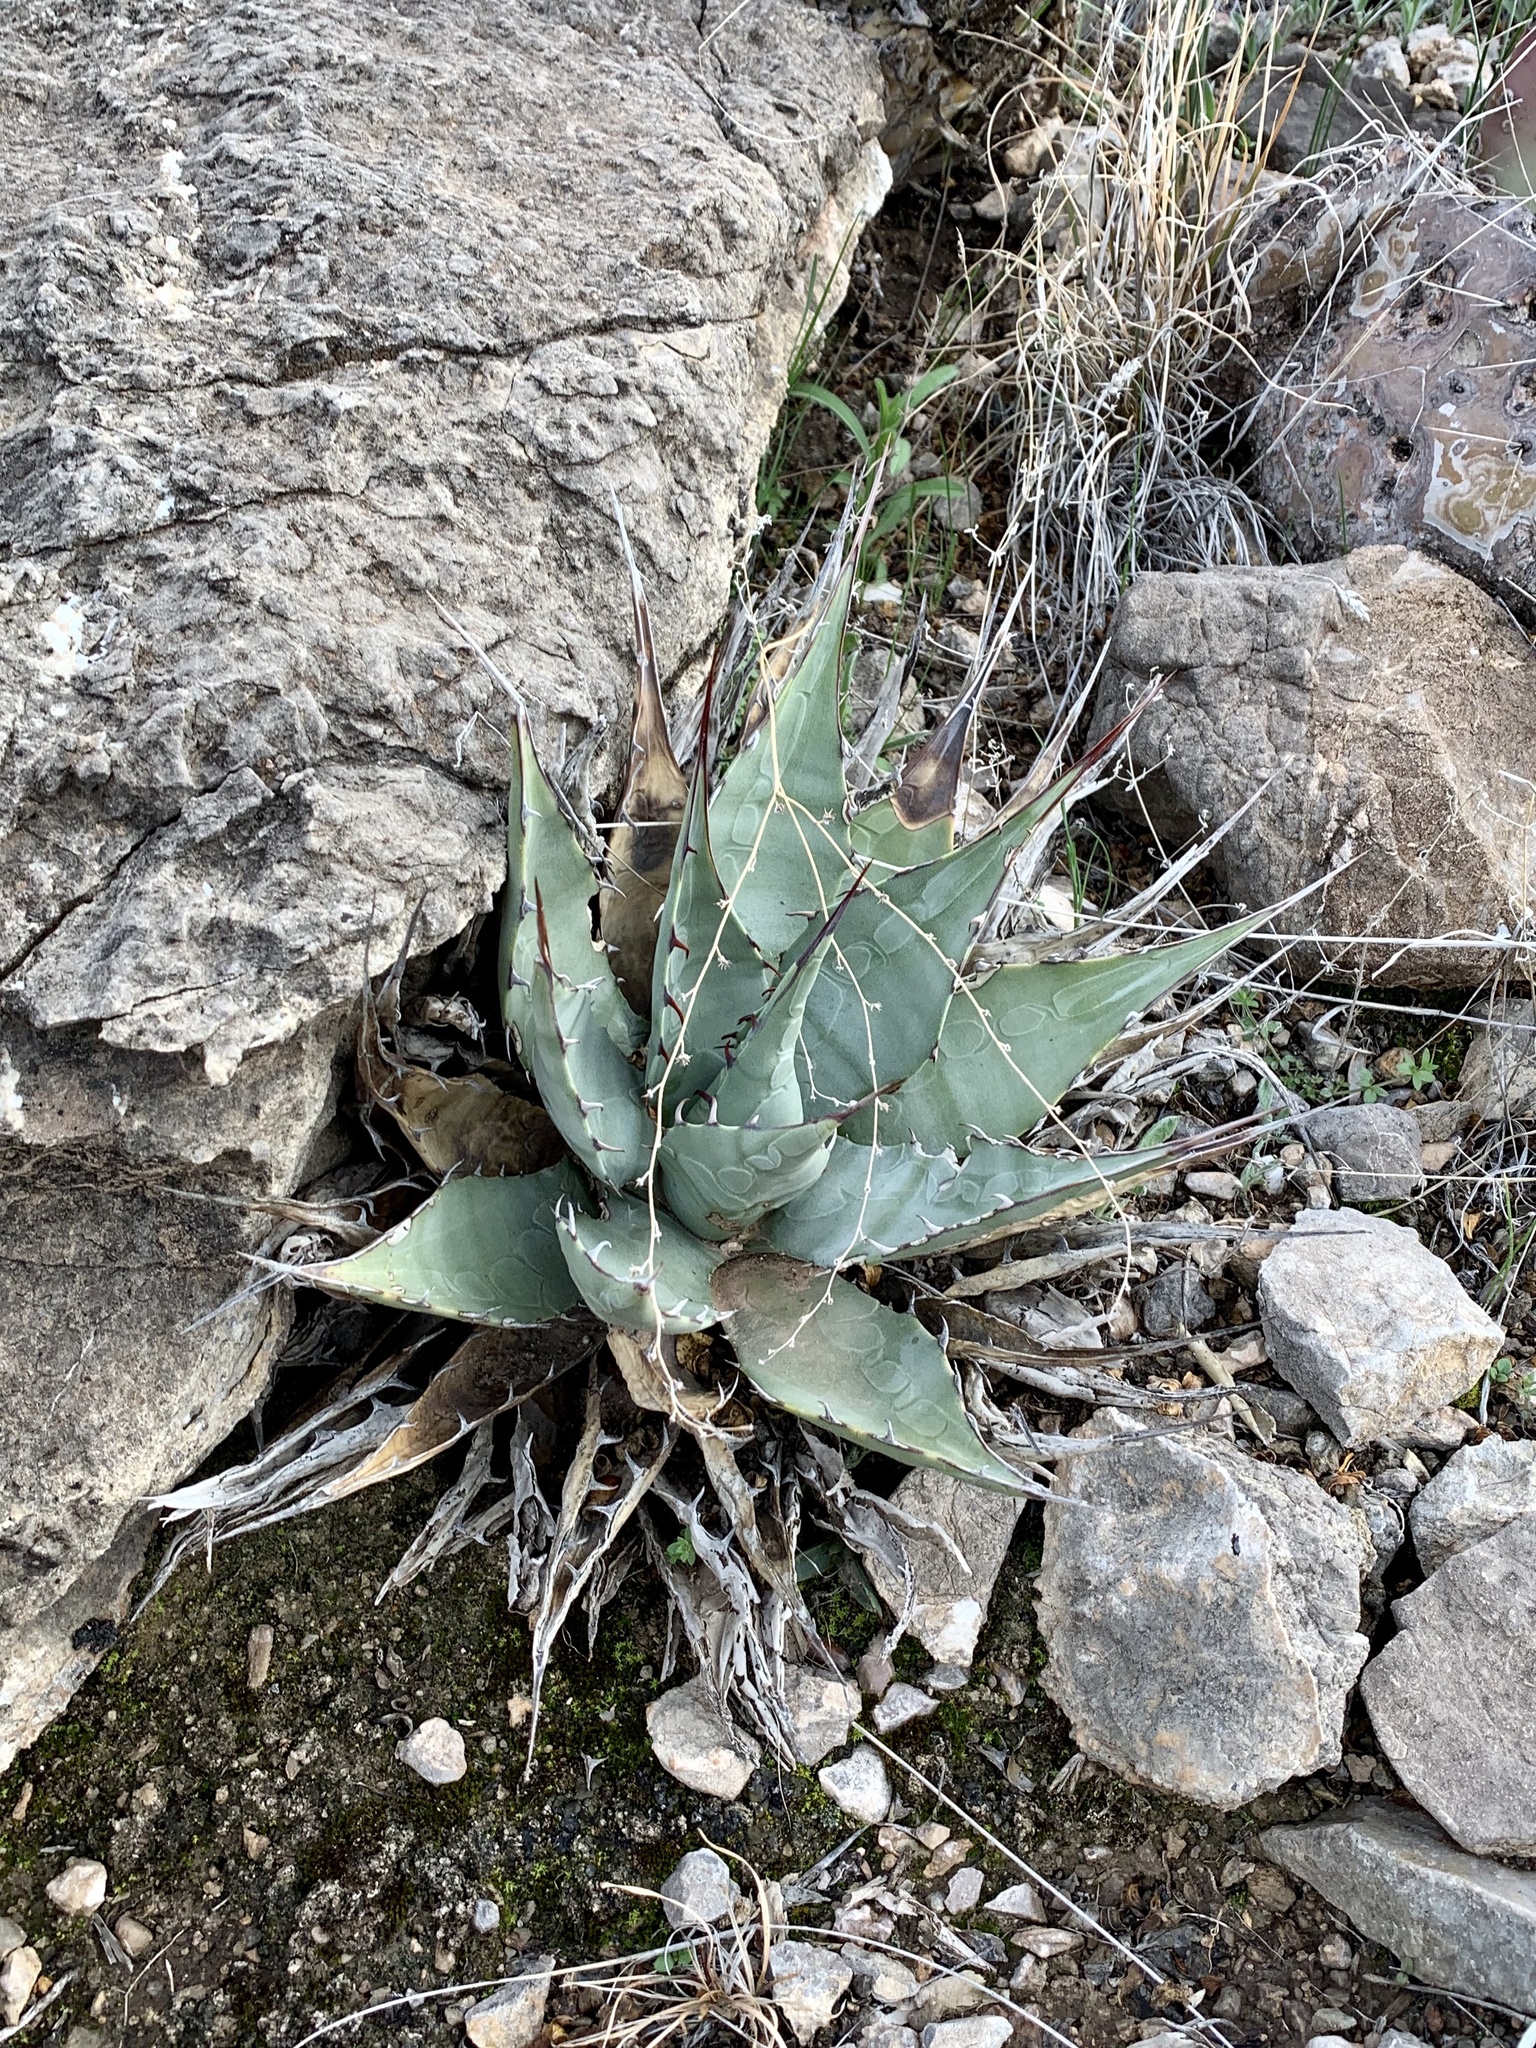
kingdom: Plantae
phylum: Tracheophyta
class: Liliopsida
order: Asparagales
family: Asparagaceae
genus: Agave
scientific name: Agave parryi
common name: Parry's agave
